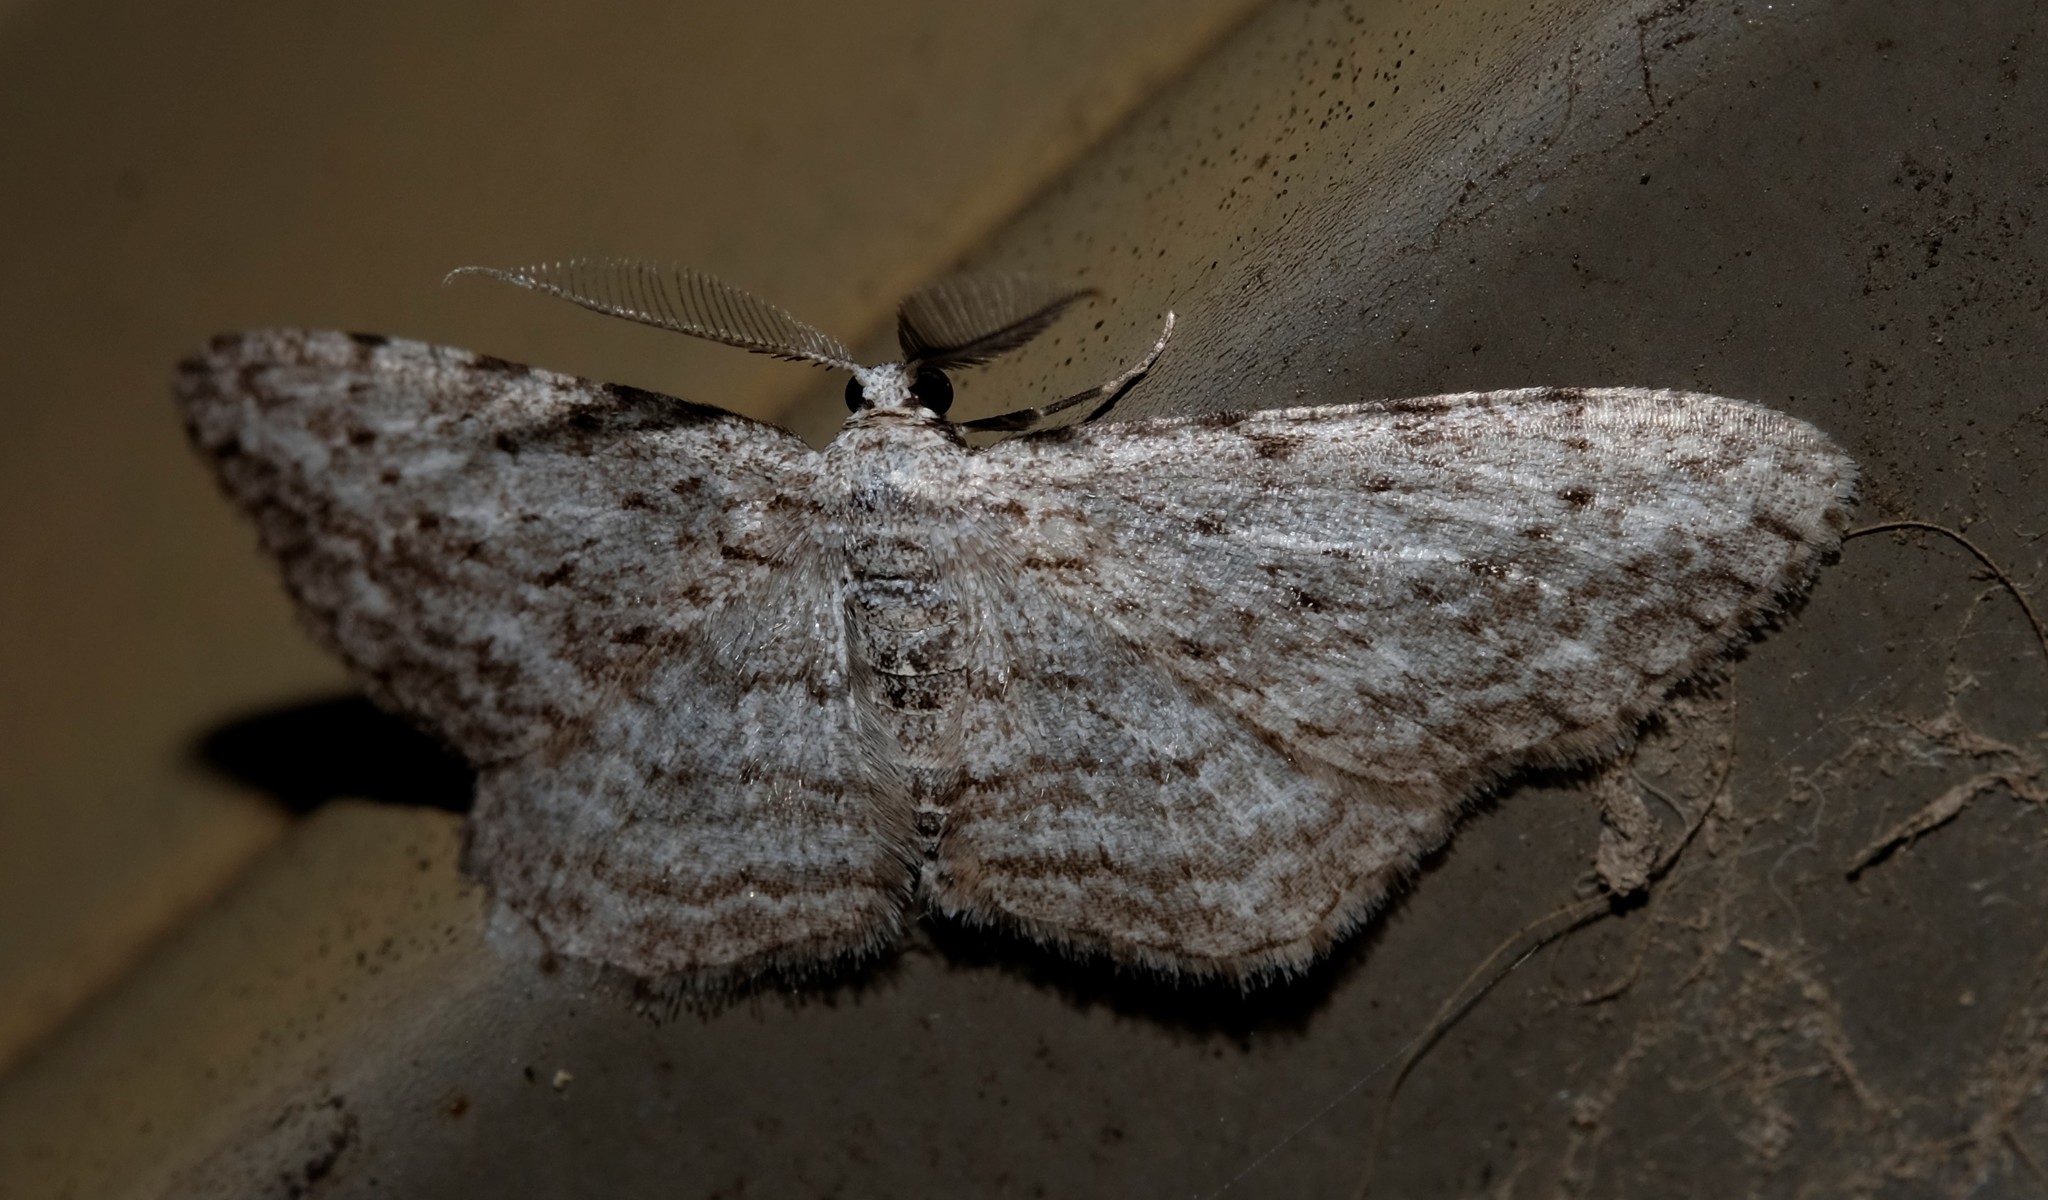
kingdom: Animalia
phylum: Arthropoda
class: Insecta
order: Lepidoptera
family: Geometridae
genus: Phelotis
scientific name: Phelotis cognata
